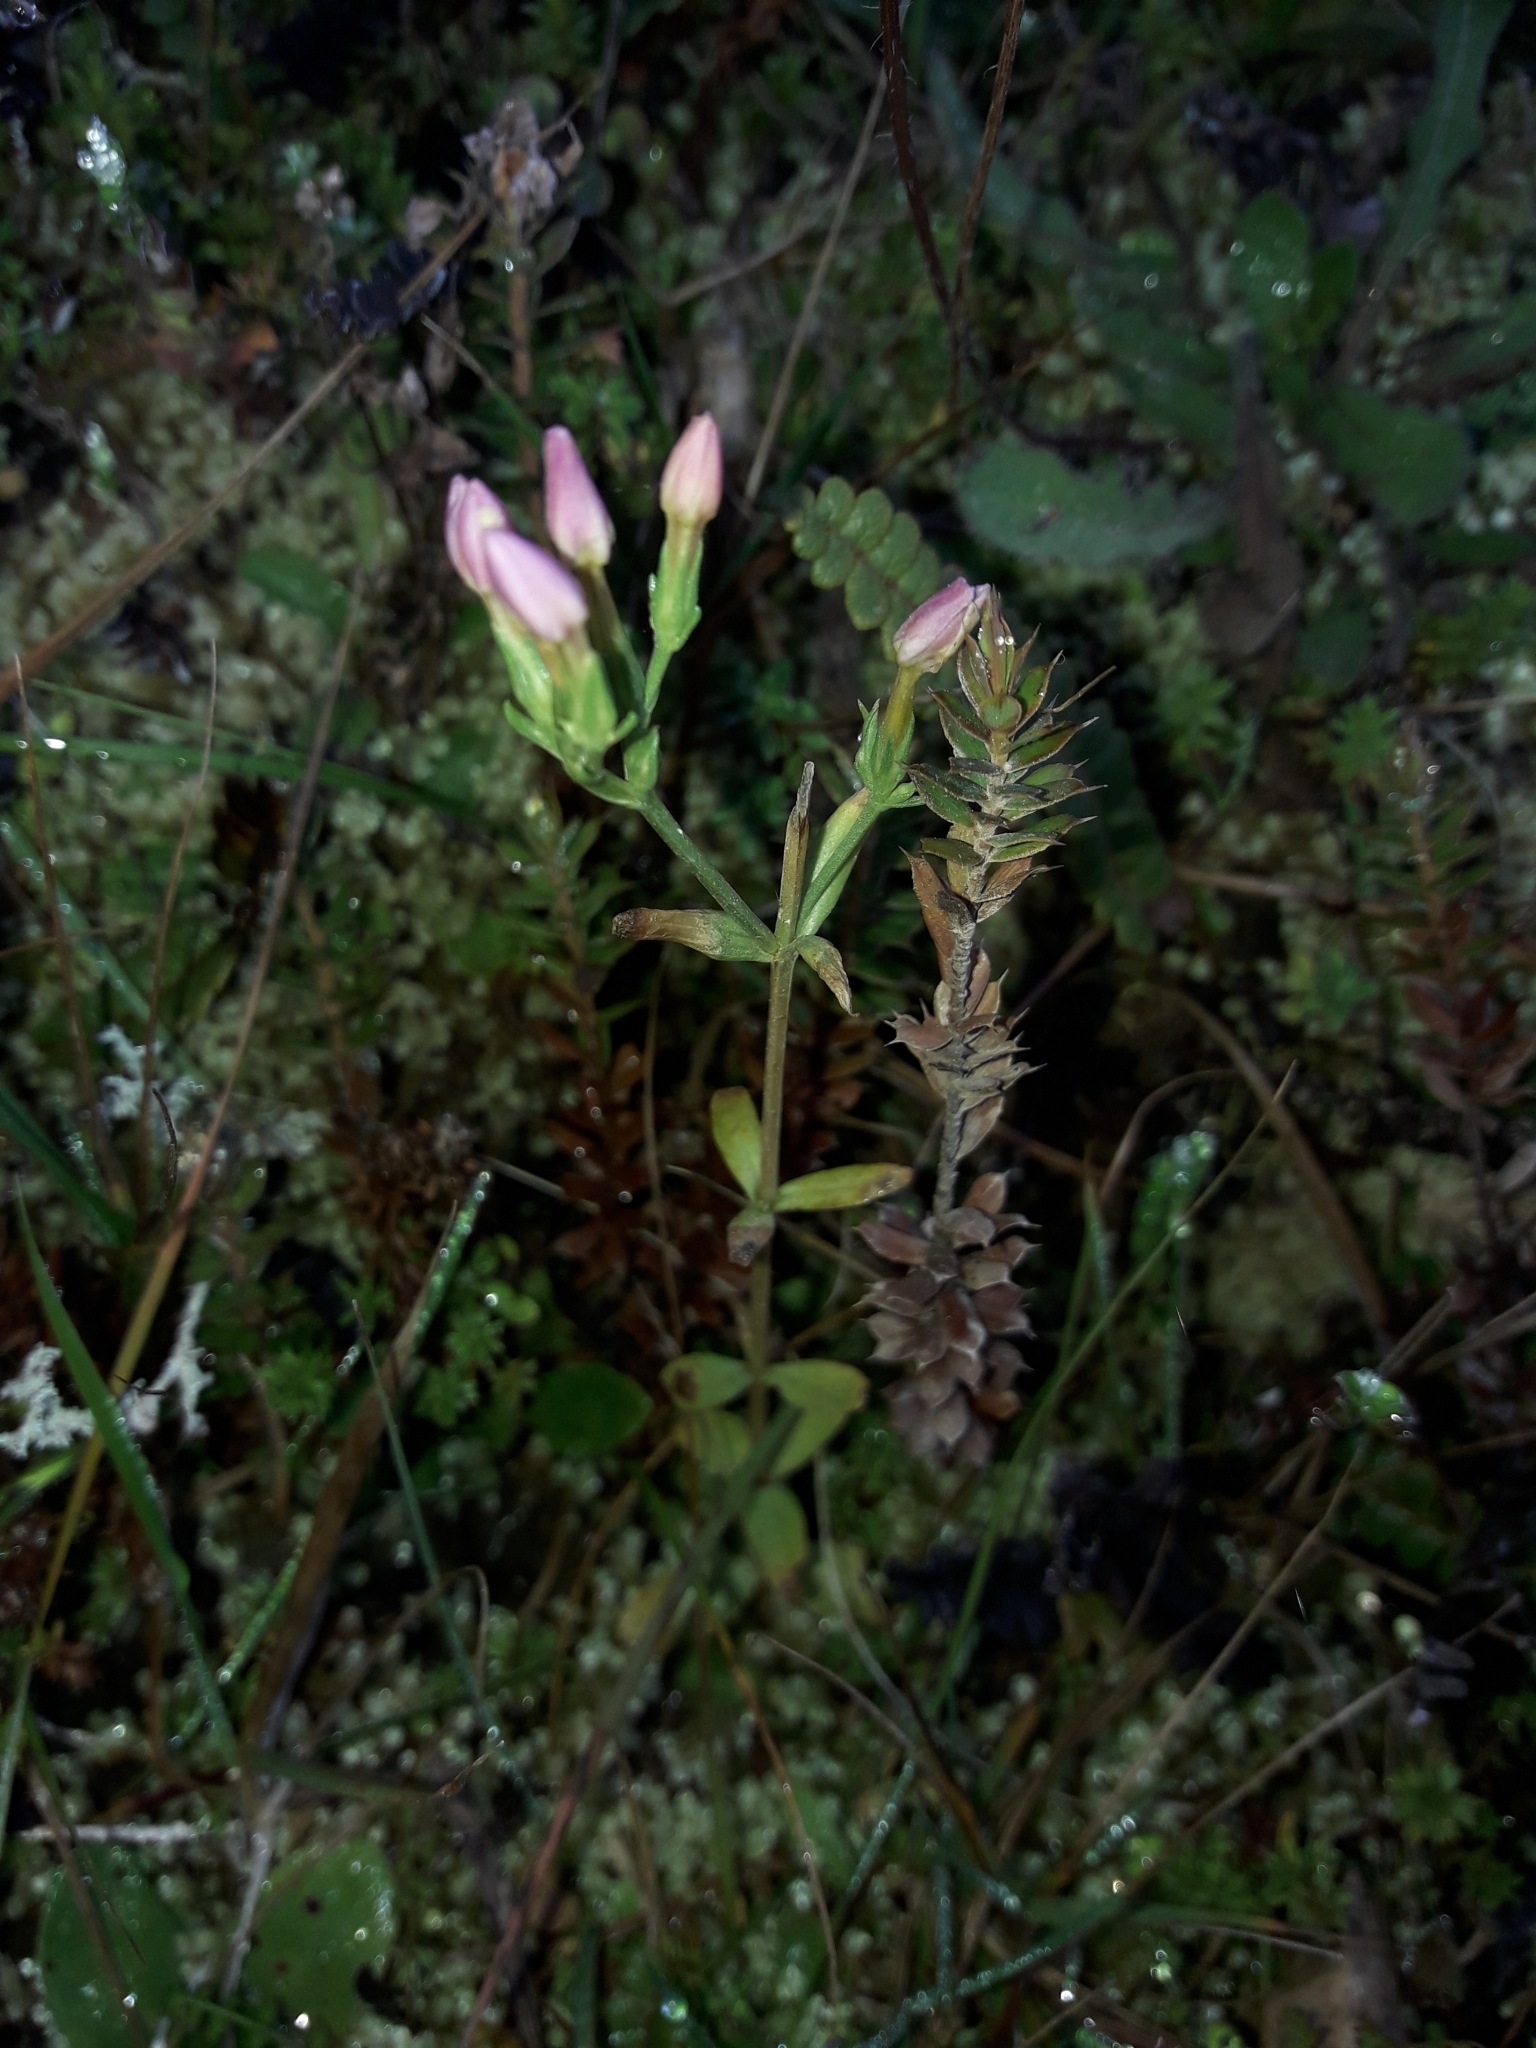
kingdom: Plantae
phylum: Tracheophyta
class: Magnoliopsida
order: Gentianales
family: Gentianaceae
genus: Centaurium
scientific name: Centaurium erythraea
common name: Common centaury
